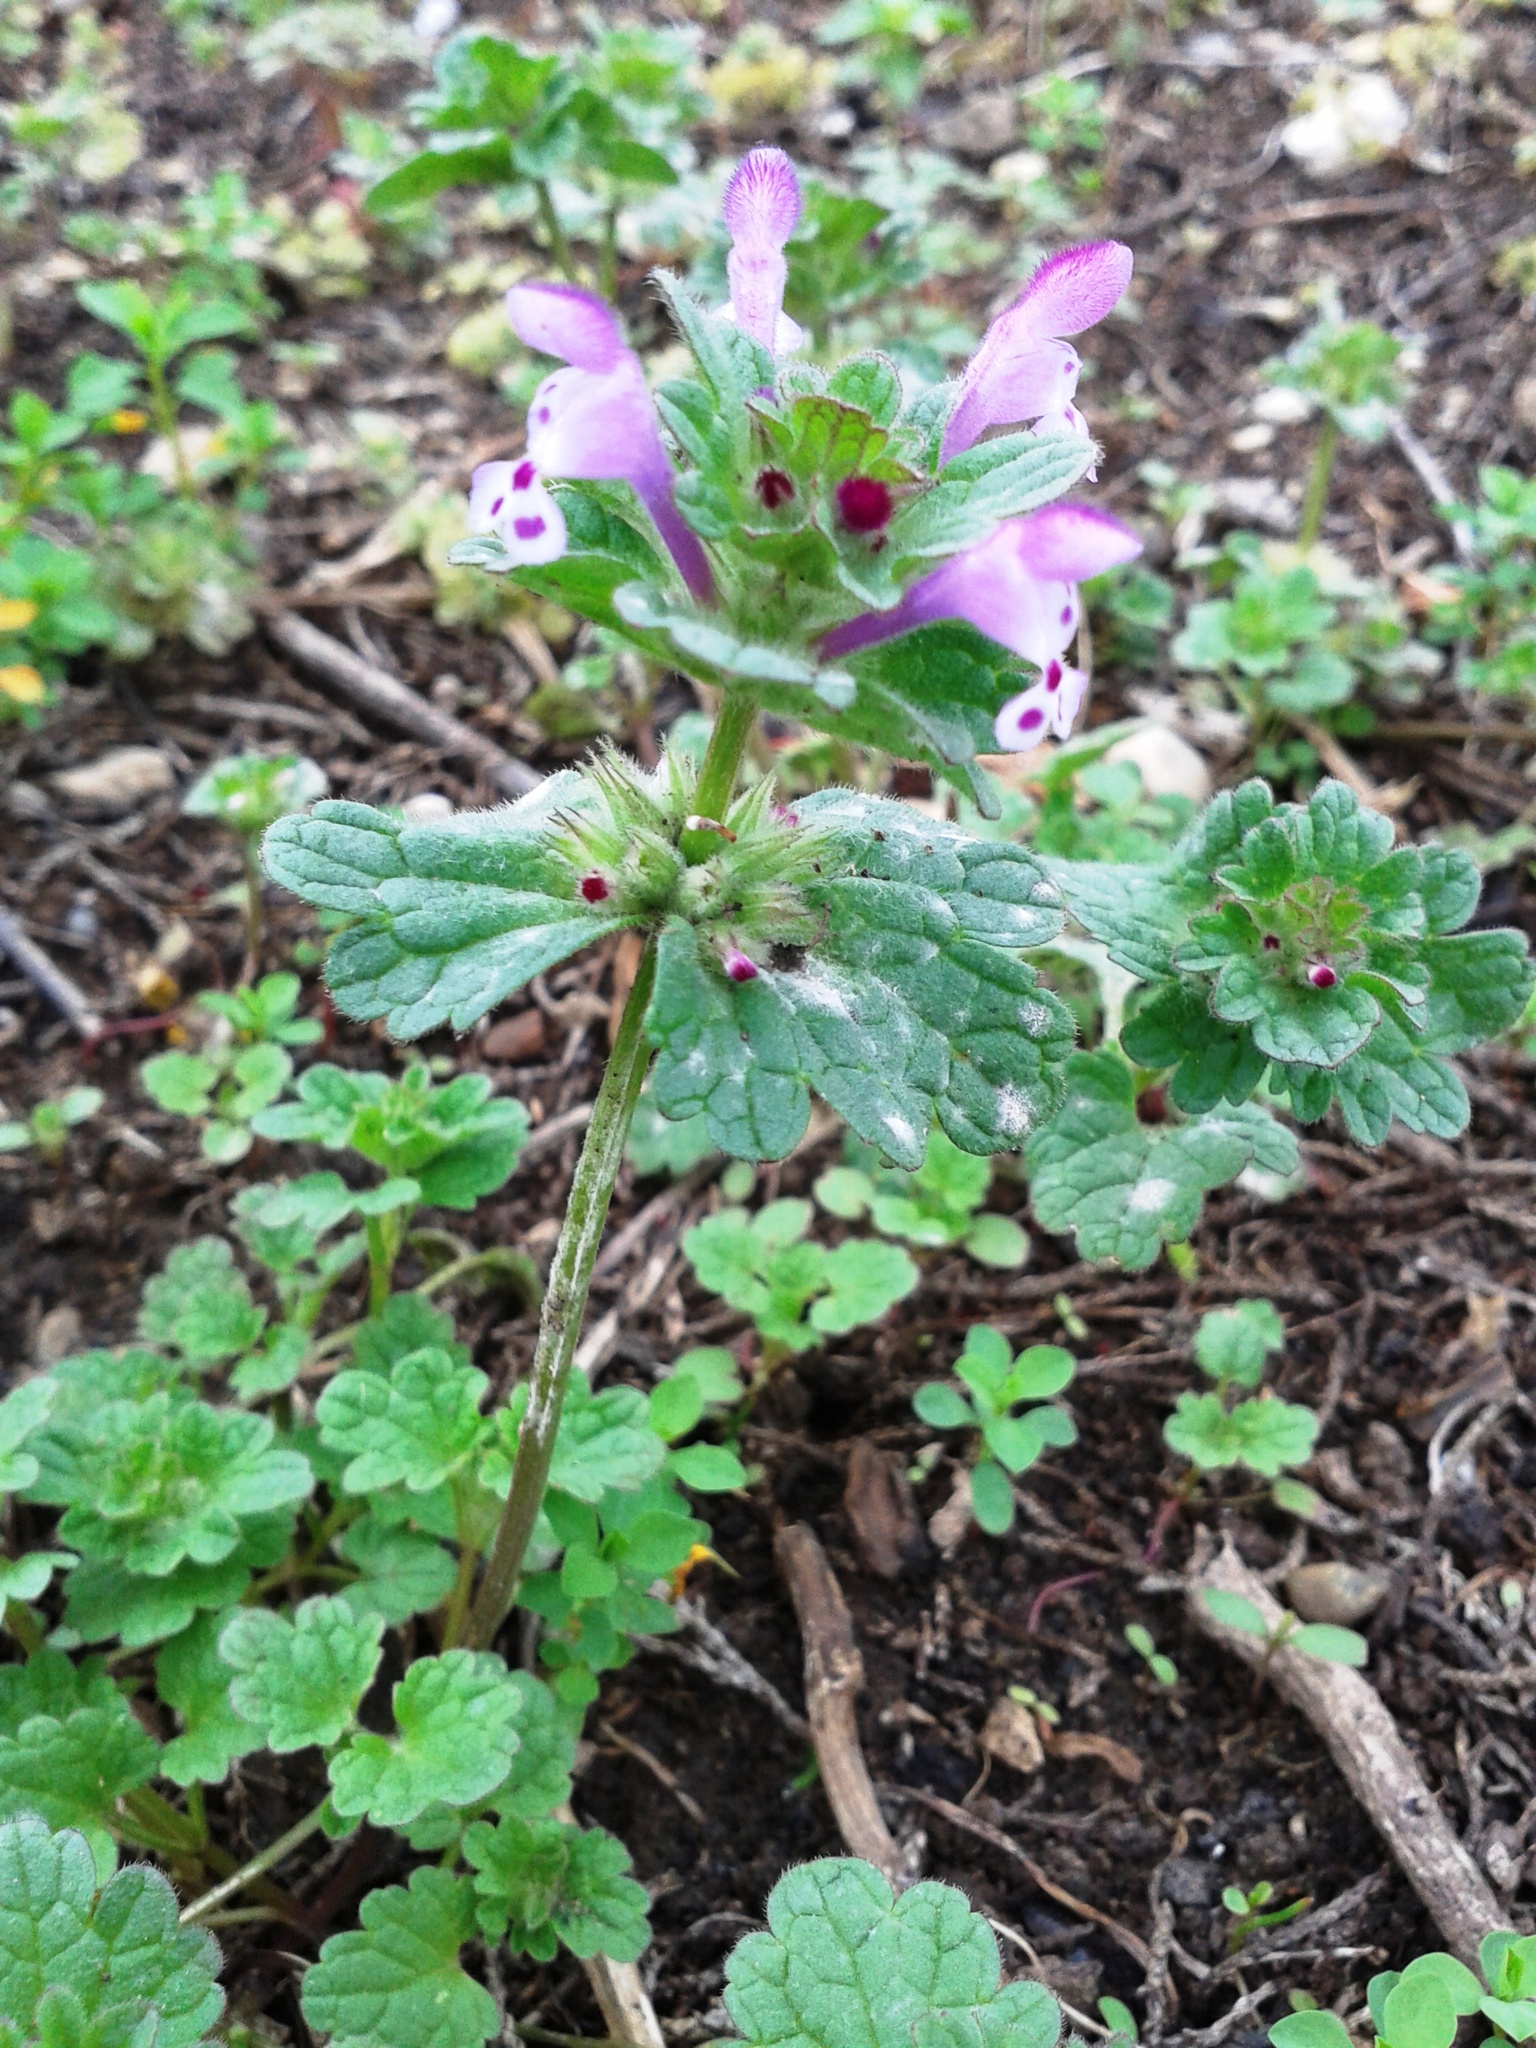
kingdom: Plantae
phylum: Tracheophyta
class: Magnoliopsida
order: Lamiales
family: Lamiaceae
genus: Lamium
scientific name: Lamium amplexicaule
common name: Henbit dead-nettle
